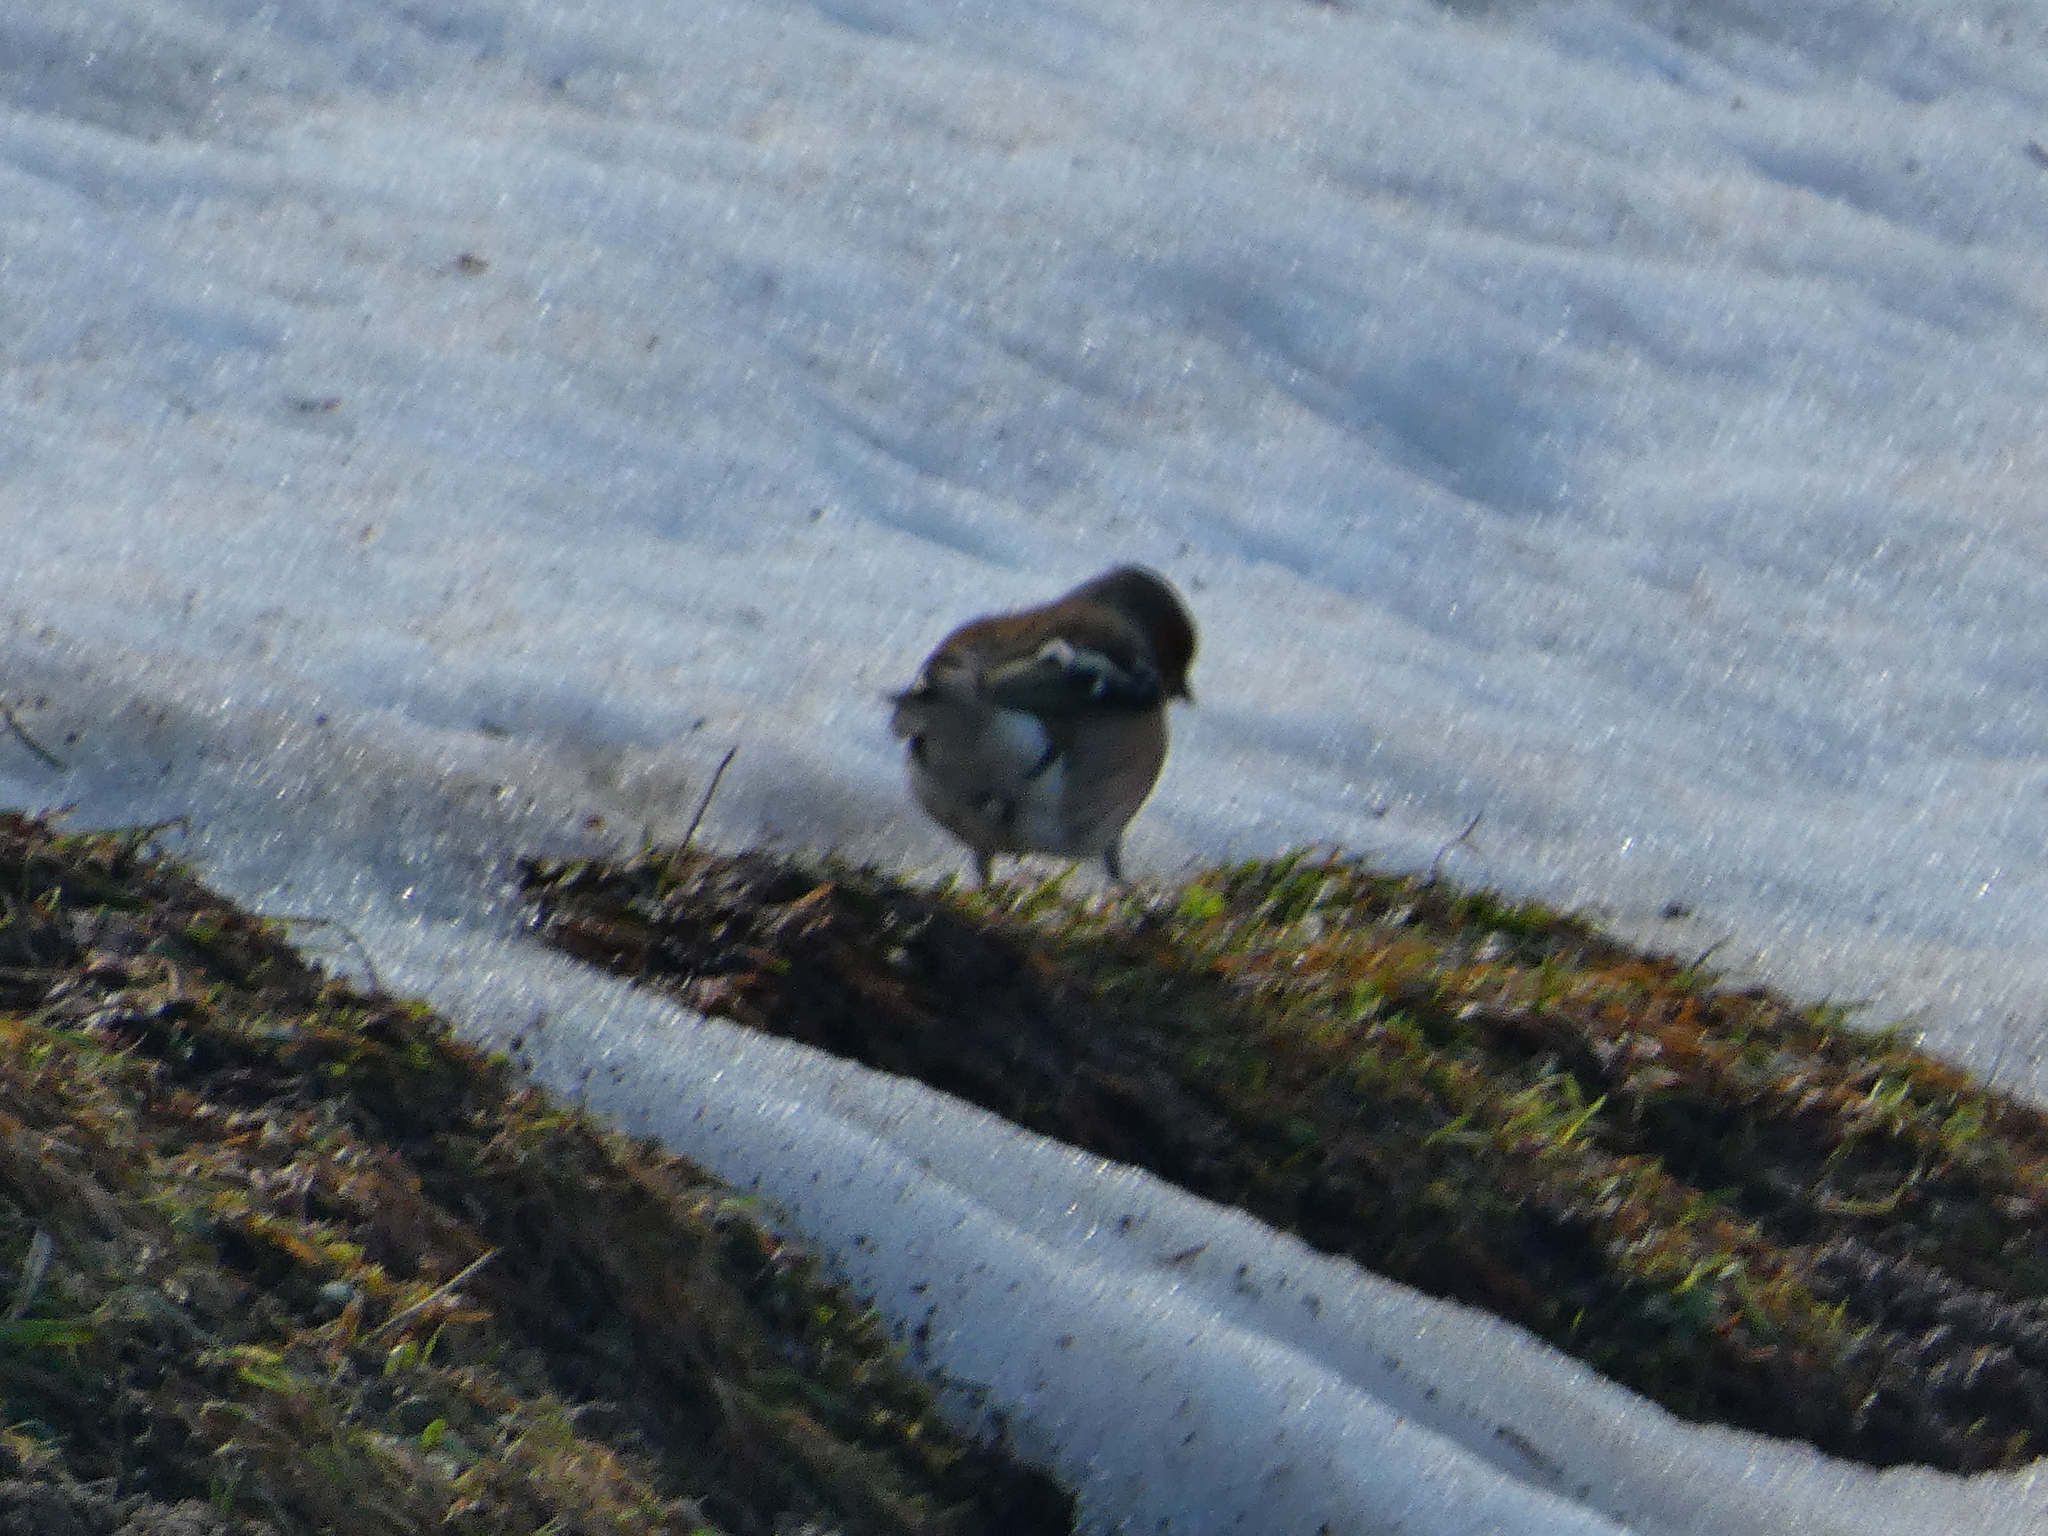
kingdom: Animalia
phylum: Chordata
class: Aves
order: Passeriformes
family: Fringillidae
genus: Fringilla
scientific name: Fringilla coelebs
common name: Common chaffinch
